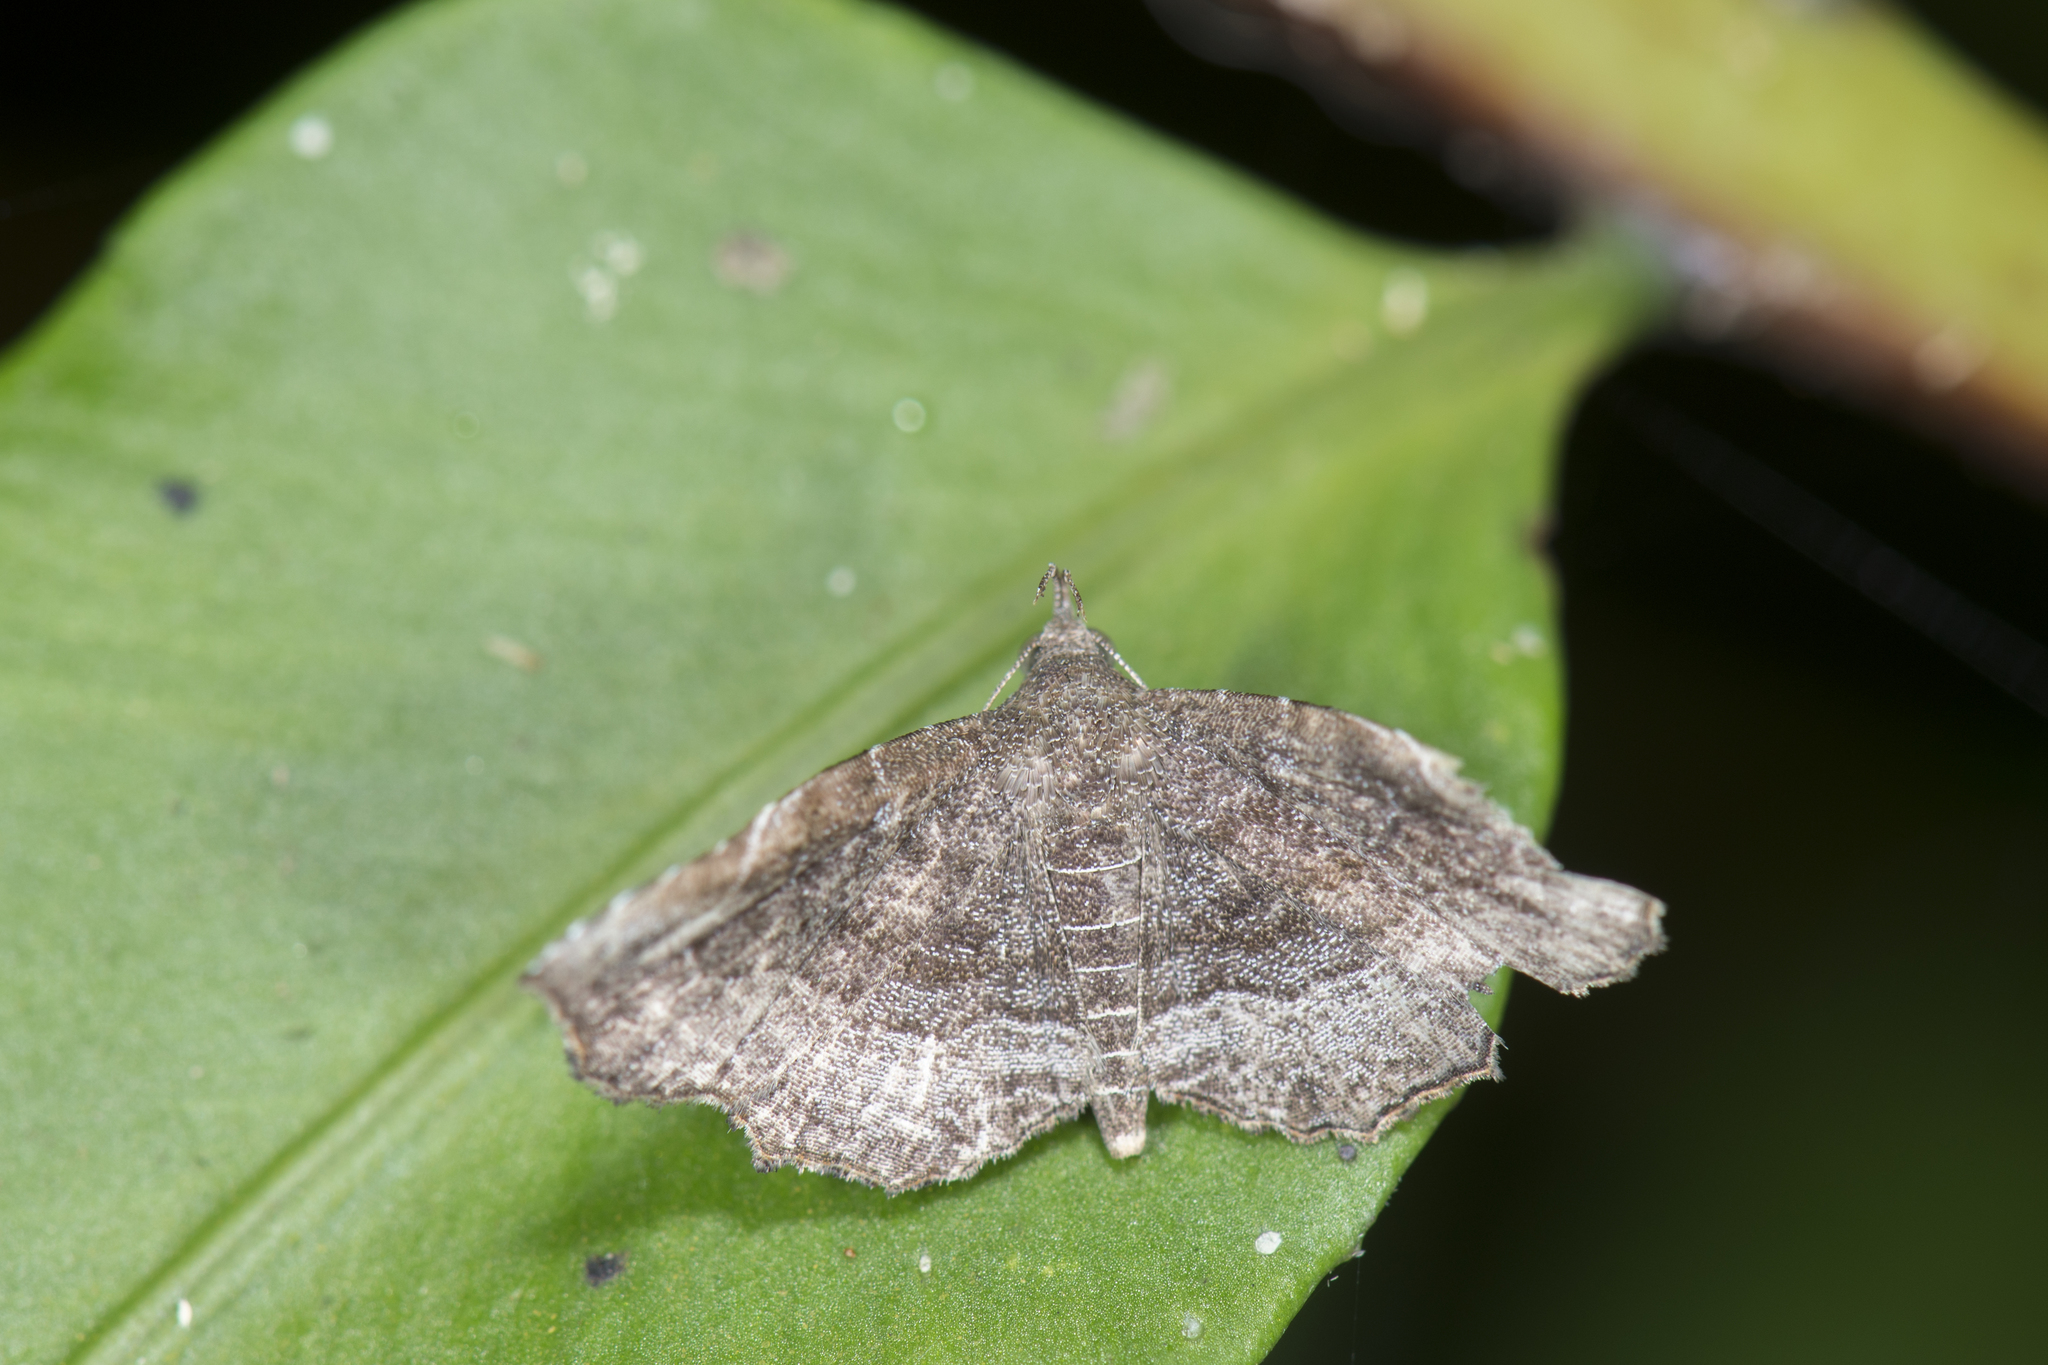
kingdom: Animalia
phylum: Arthropoda
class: Insecta
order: Lepidoptera
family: Erebidae
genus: Nagadeba
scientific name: Nagadeba indecoralis
